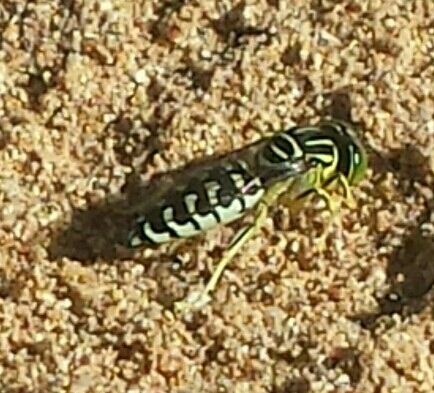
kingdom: Animalia
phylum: Arthropoda
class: Insecta
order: Hymenoptera
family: Crabronidae
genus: Stictia
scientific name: Stictia signata
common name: Sand wasp
